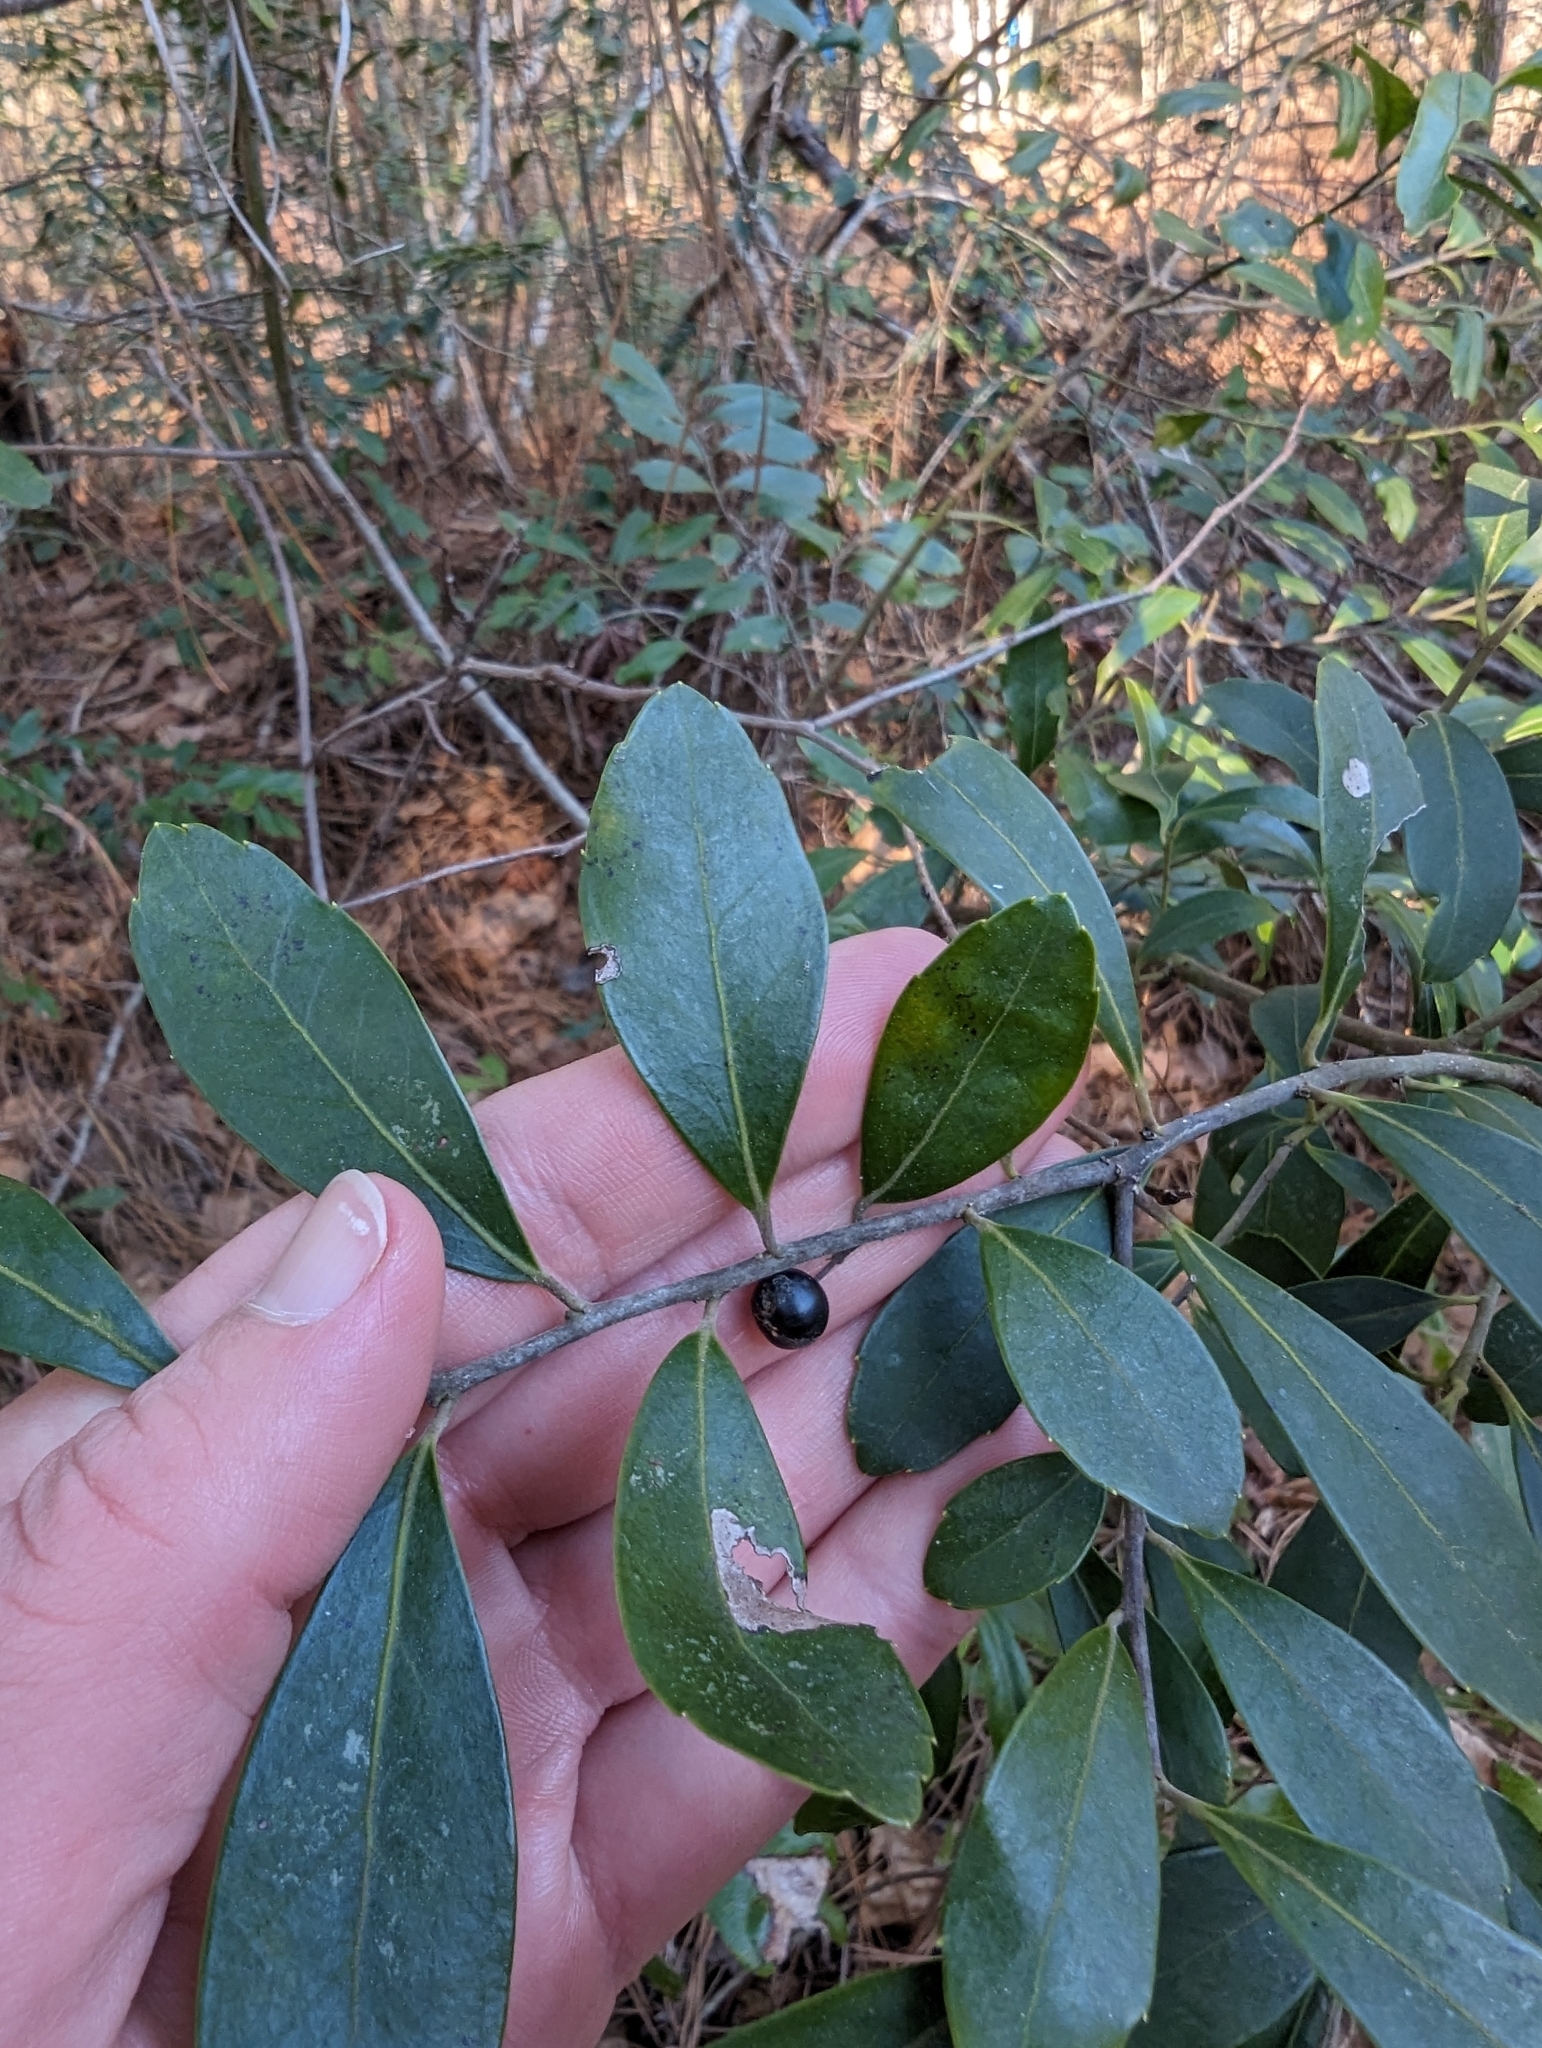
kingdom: Plantae
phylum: Tracheophyta
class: Magnoliopsida
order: Aquifoliales
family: Aquifoliaceae
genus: Ilex
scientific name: Ilex glabra
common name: Bitter gallberry
